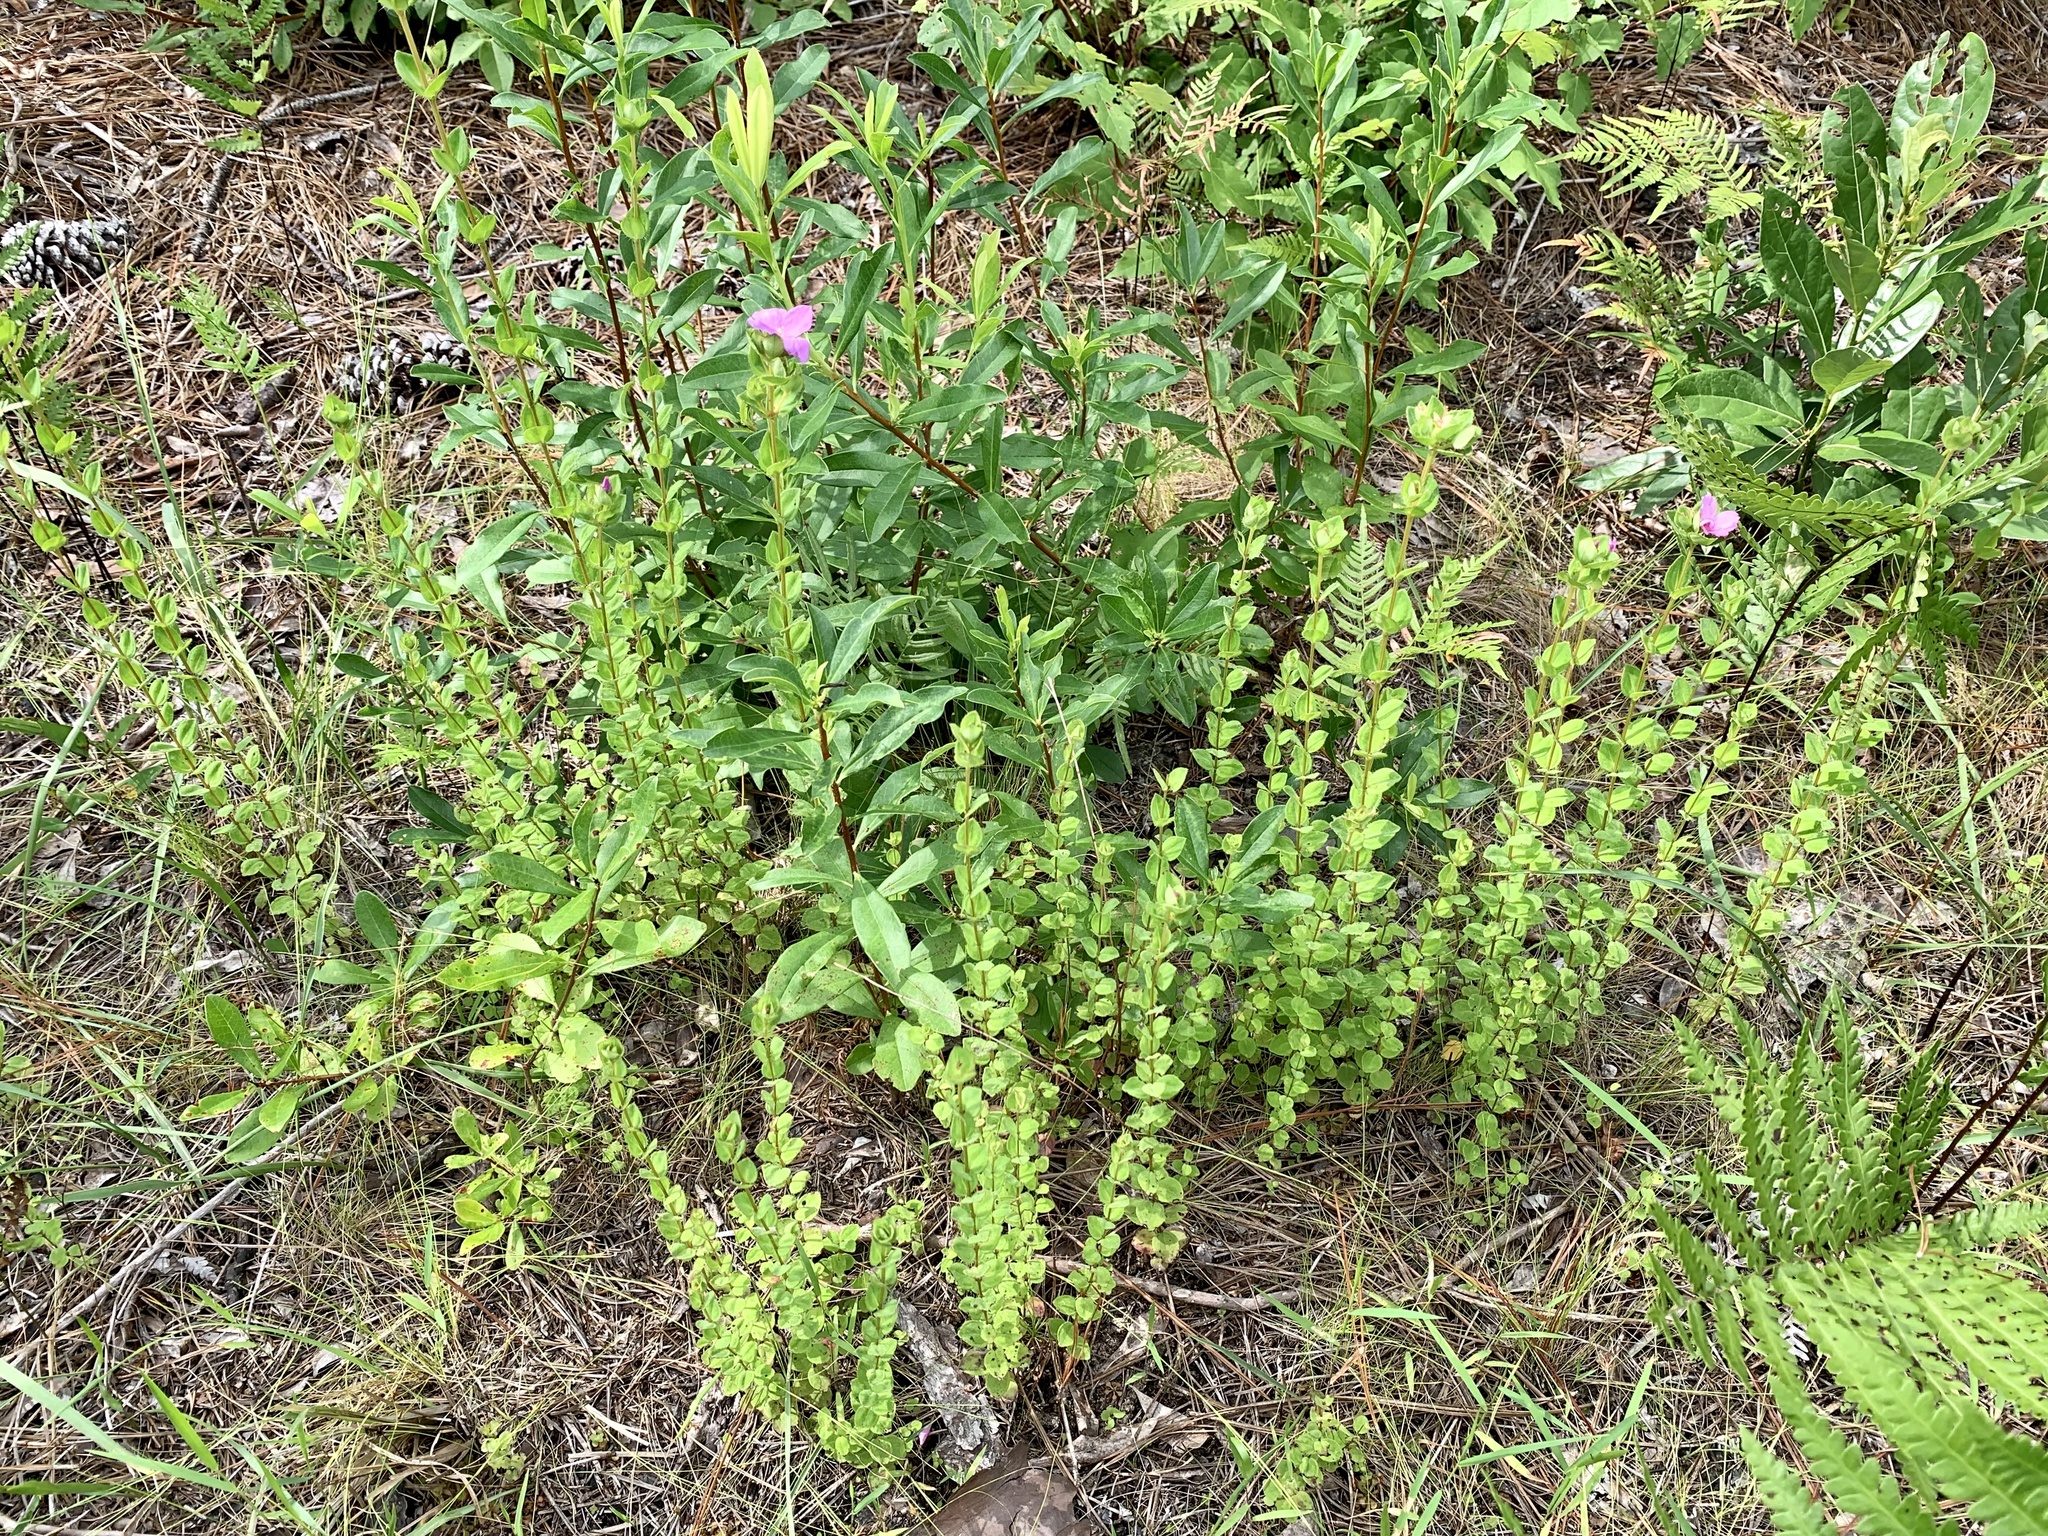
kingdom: Plantae
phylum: Tracheophyta
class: Magnoliopsida
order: Myrtales
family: Melastomataceae
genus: Rhexia
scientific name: Rhexia petiolata
